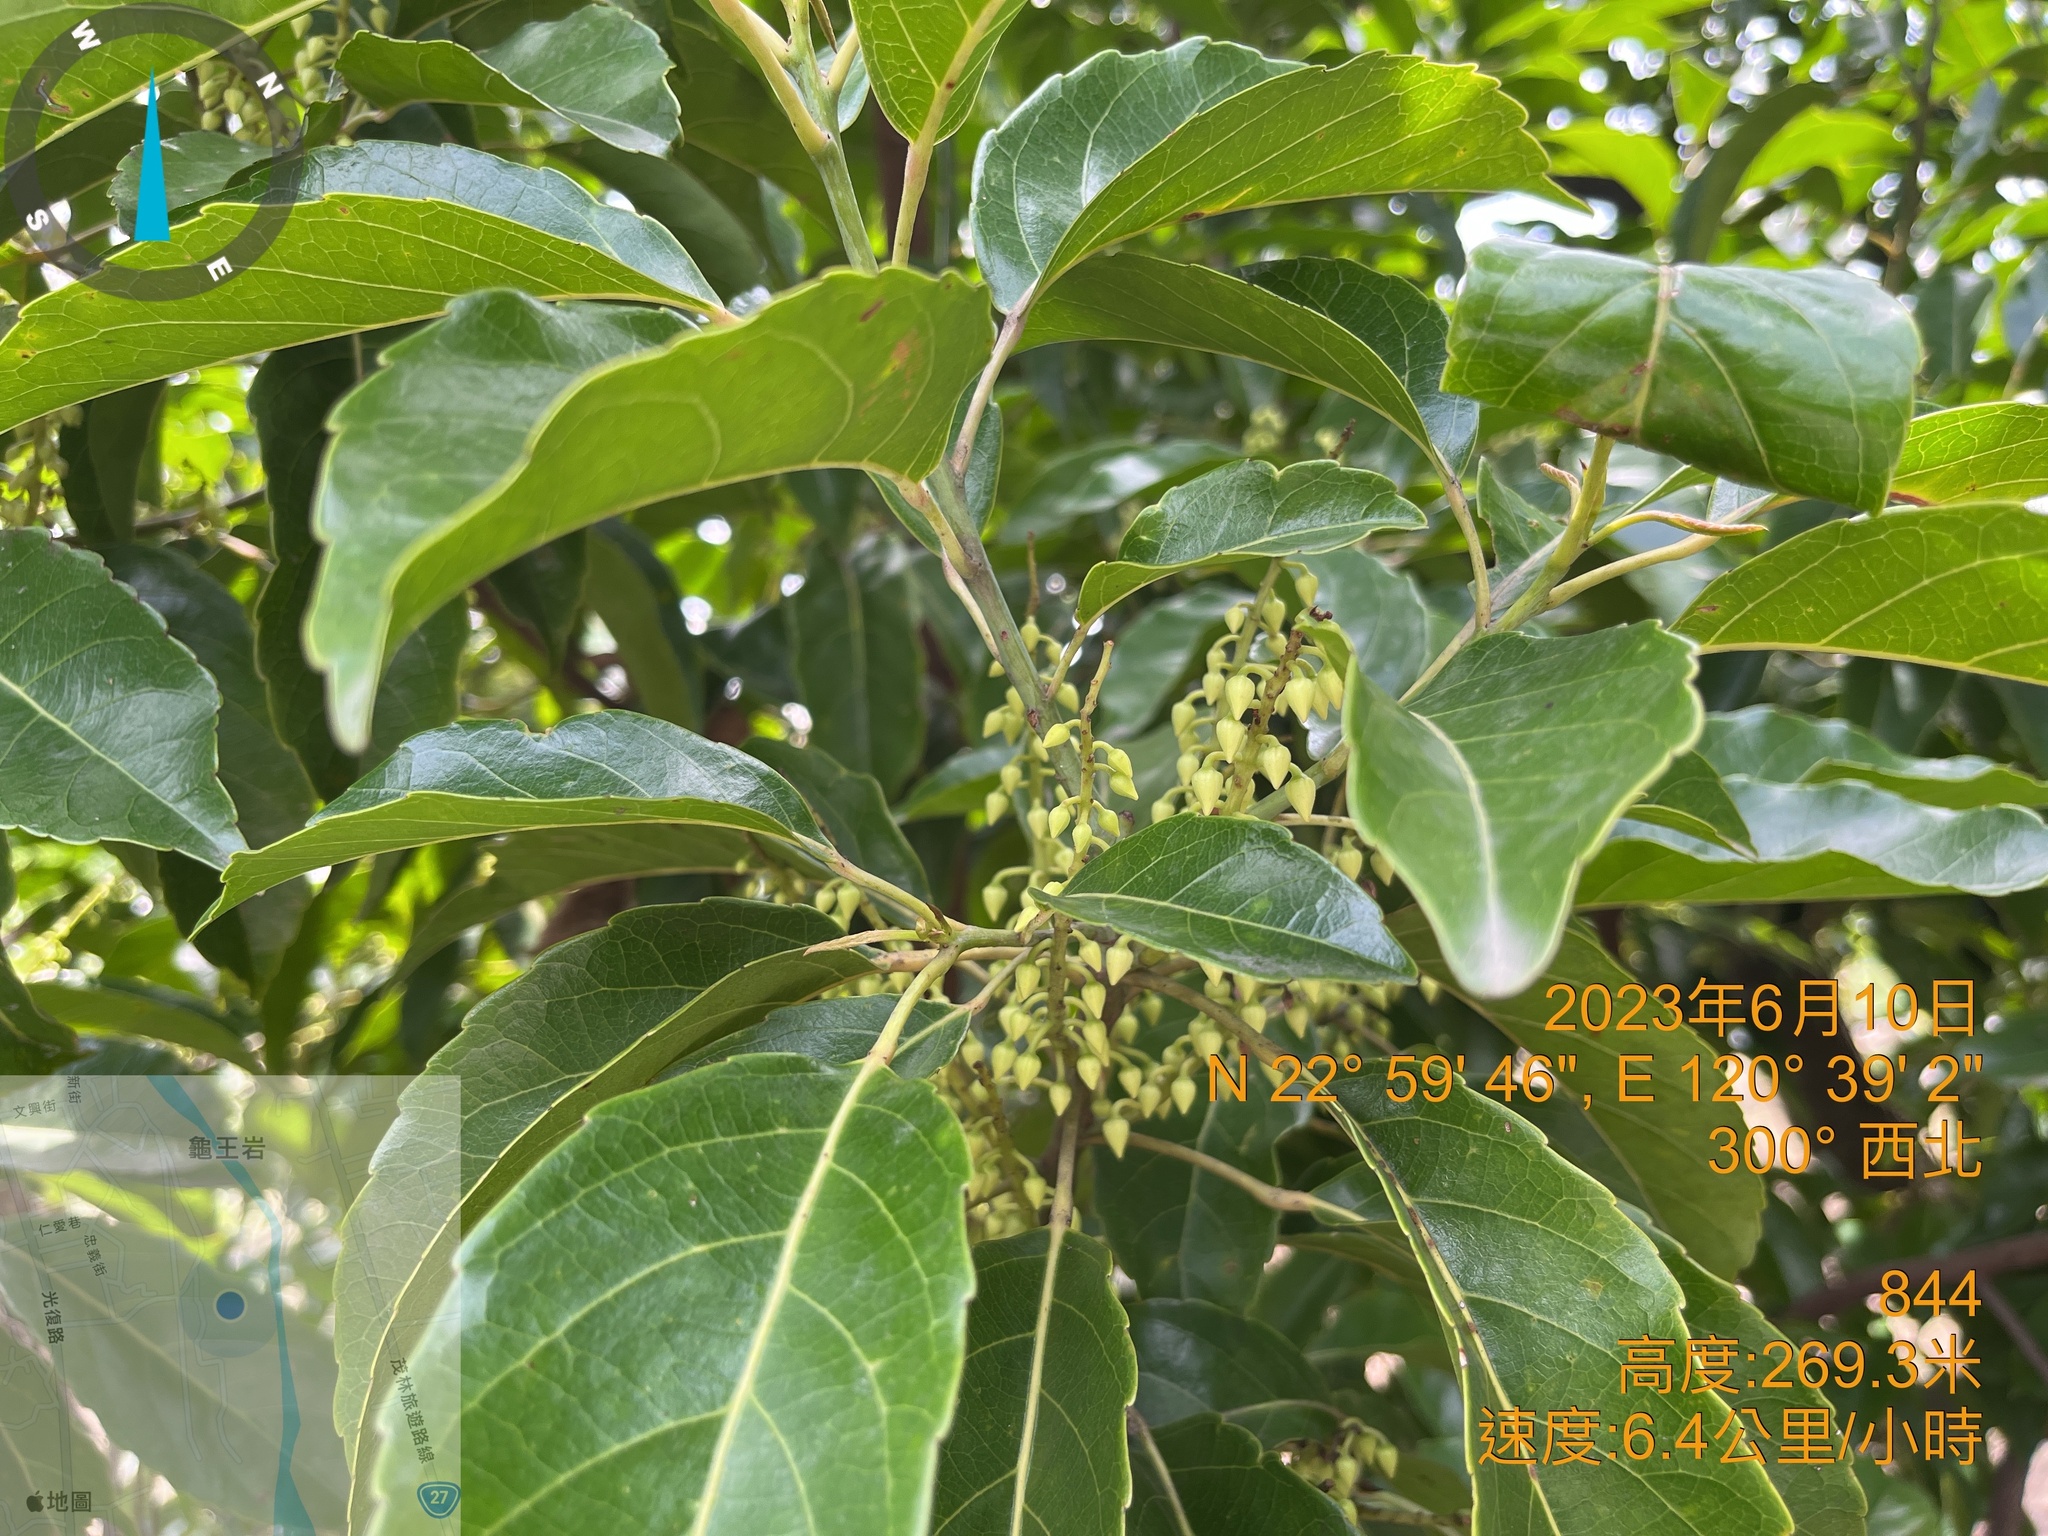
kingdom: Plantae
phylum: Tracheophyta
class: Magnoliopsida
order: Oxalidales
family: Elaeocarpaceae
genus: Elaeocarpus
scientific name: Elaeocarpus serratus
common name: Ceylon-olive
